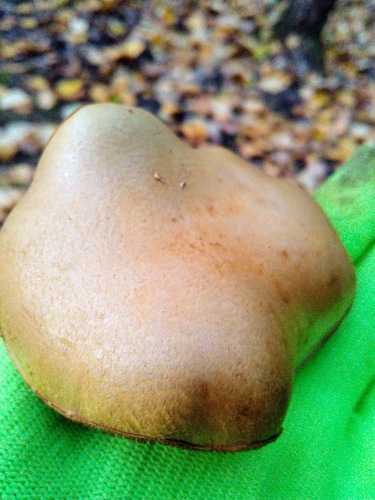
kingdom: Fungi
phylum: Basidiomycota
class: Agaricomycetes
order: Boletales
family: Boletaceae
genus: Chalciporus
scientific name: Chalciporus piperatus
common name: Peppery bolete
